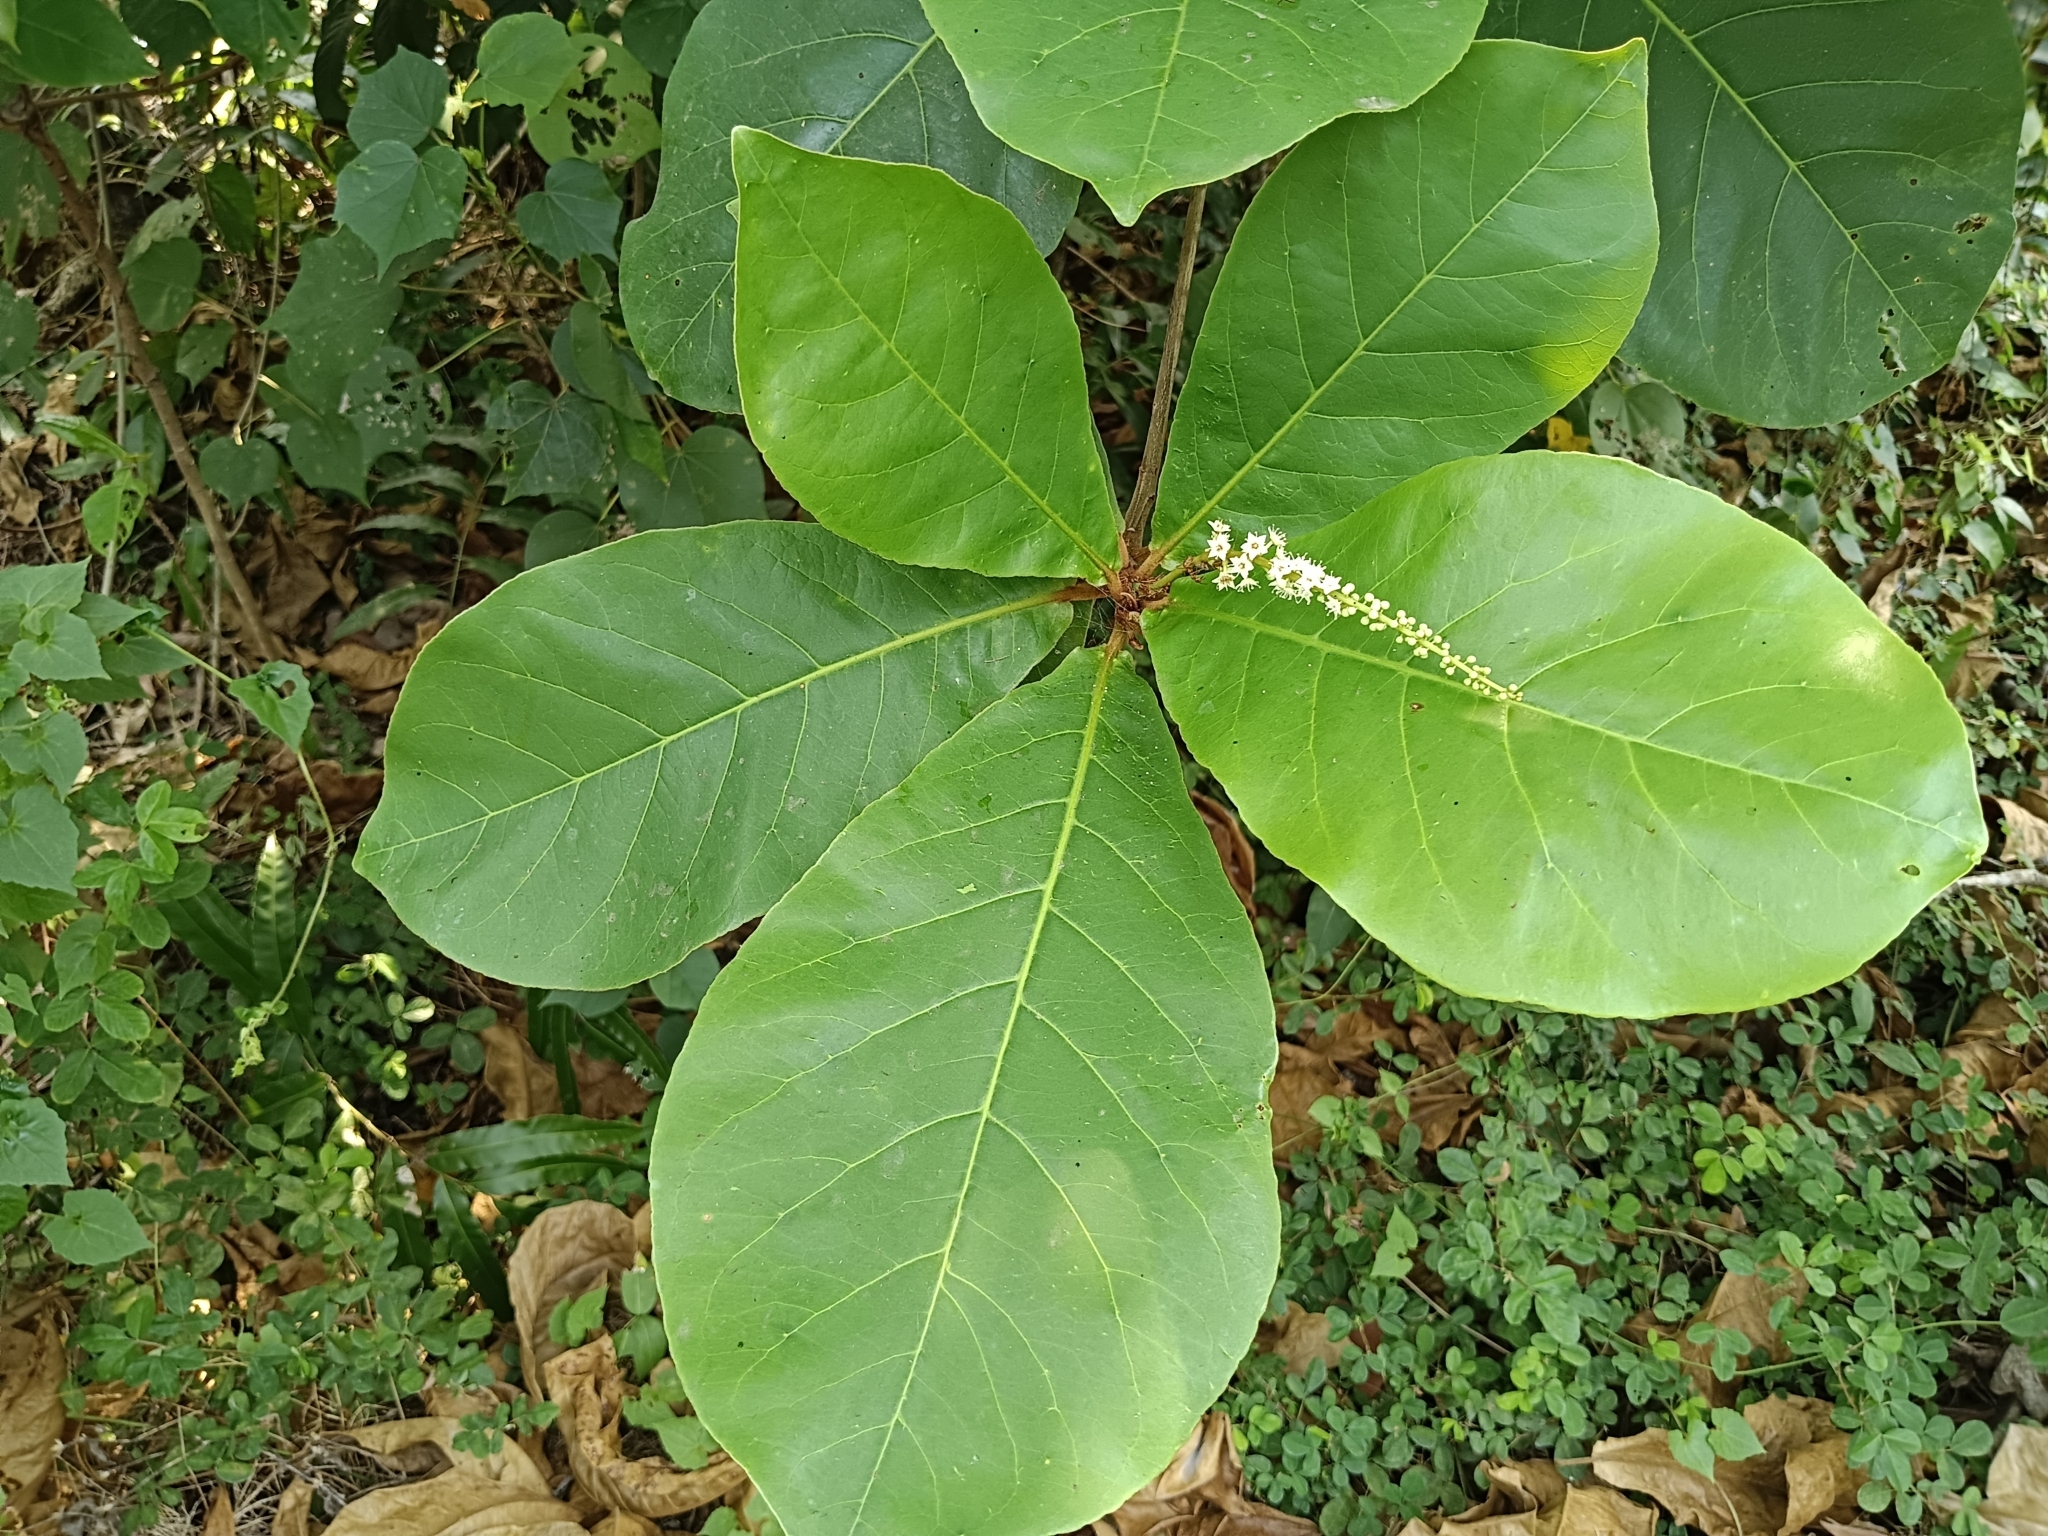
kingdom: Plantae
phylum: Tracheophyta
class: Magnoliopsida
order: Myrtales
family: Combretaceae
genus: Terminalia
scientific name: Terminalia catappa
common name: Tropical almond
